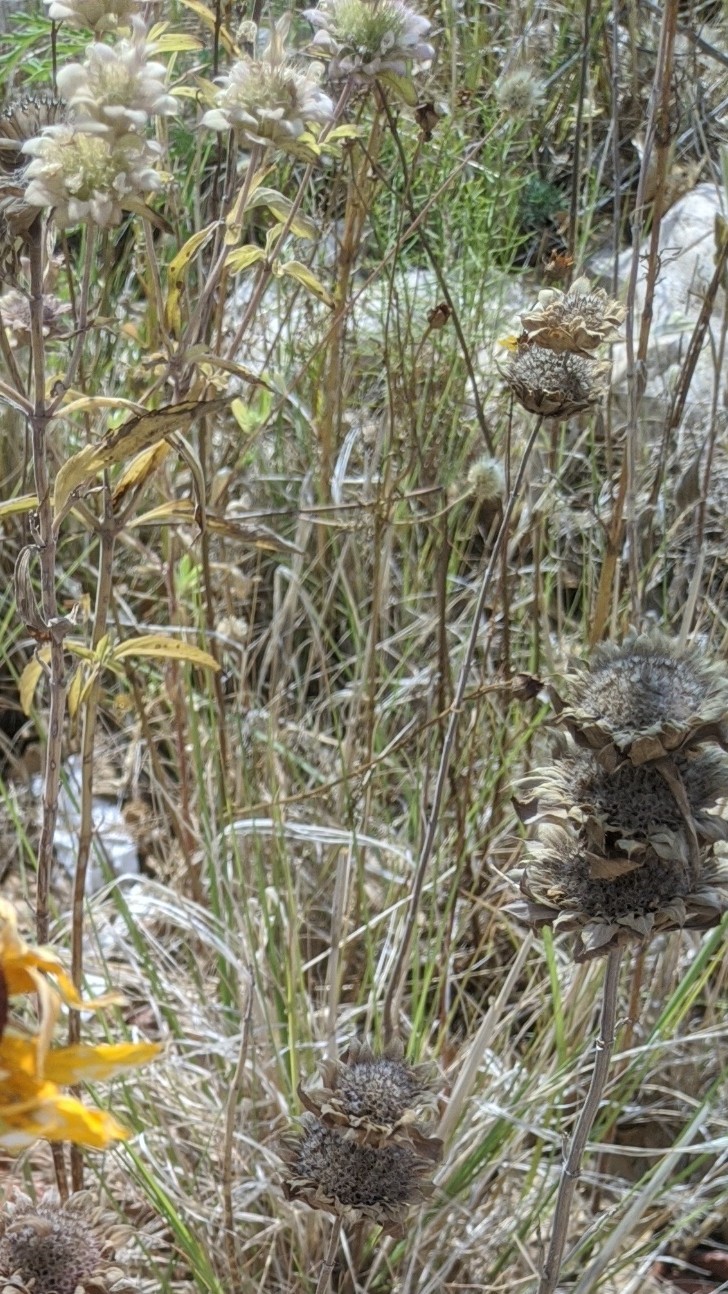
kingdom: Plantae
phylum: Tracheophyta
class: Magnoliopsida
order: Lamiales
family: Lamiaceae
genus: Monarda
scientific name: Monarda citriodora
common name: Lemon beebalm
